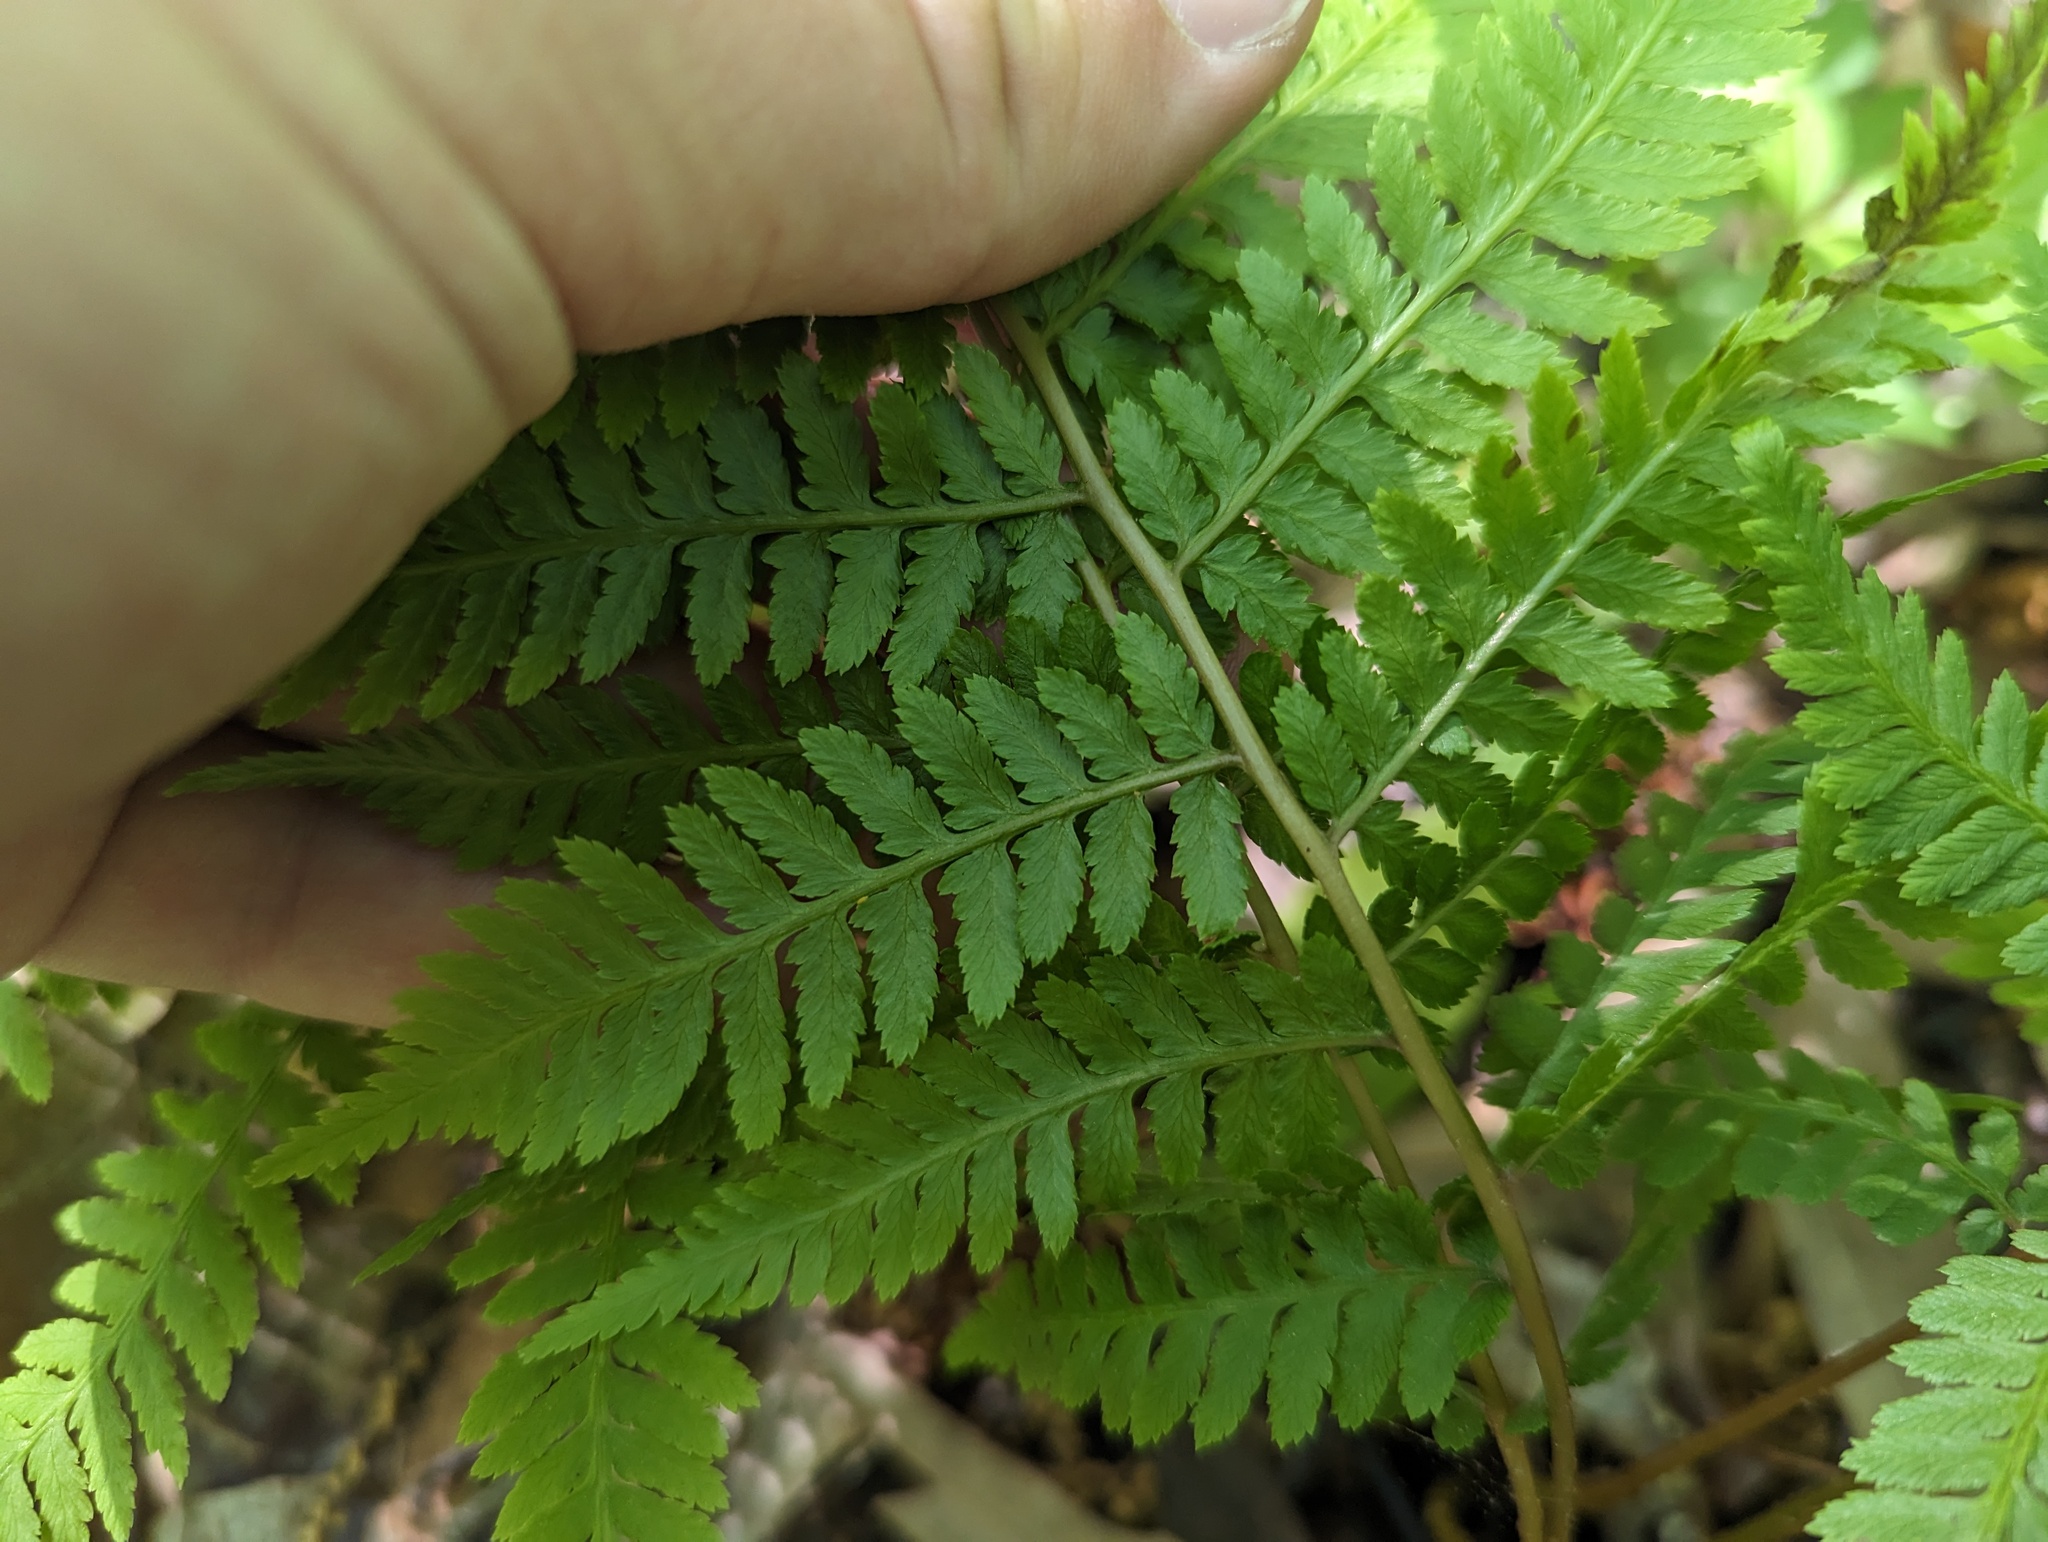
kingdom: Plantae
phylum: Tracheophyta
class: Polypodiopsida
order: Polypodiales
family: Athyriaceae
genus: Athyrium
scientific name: Athyrium asplenioides
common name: Southern lady fern
